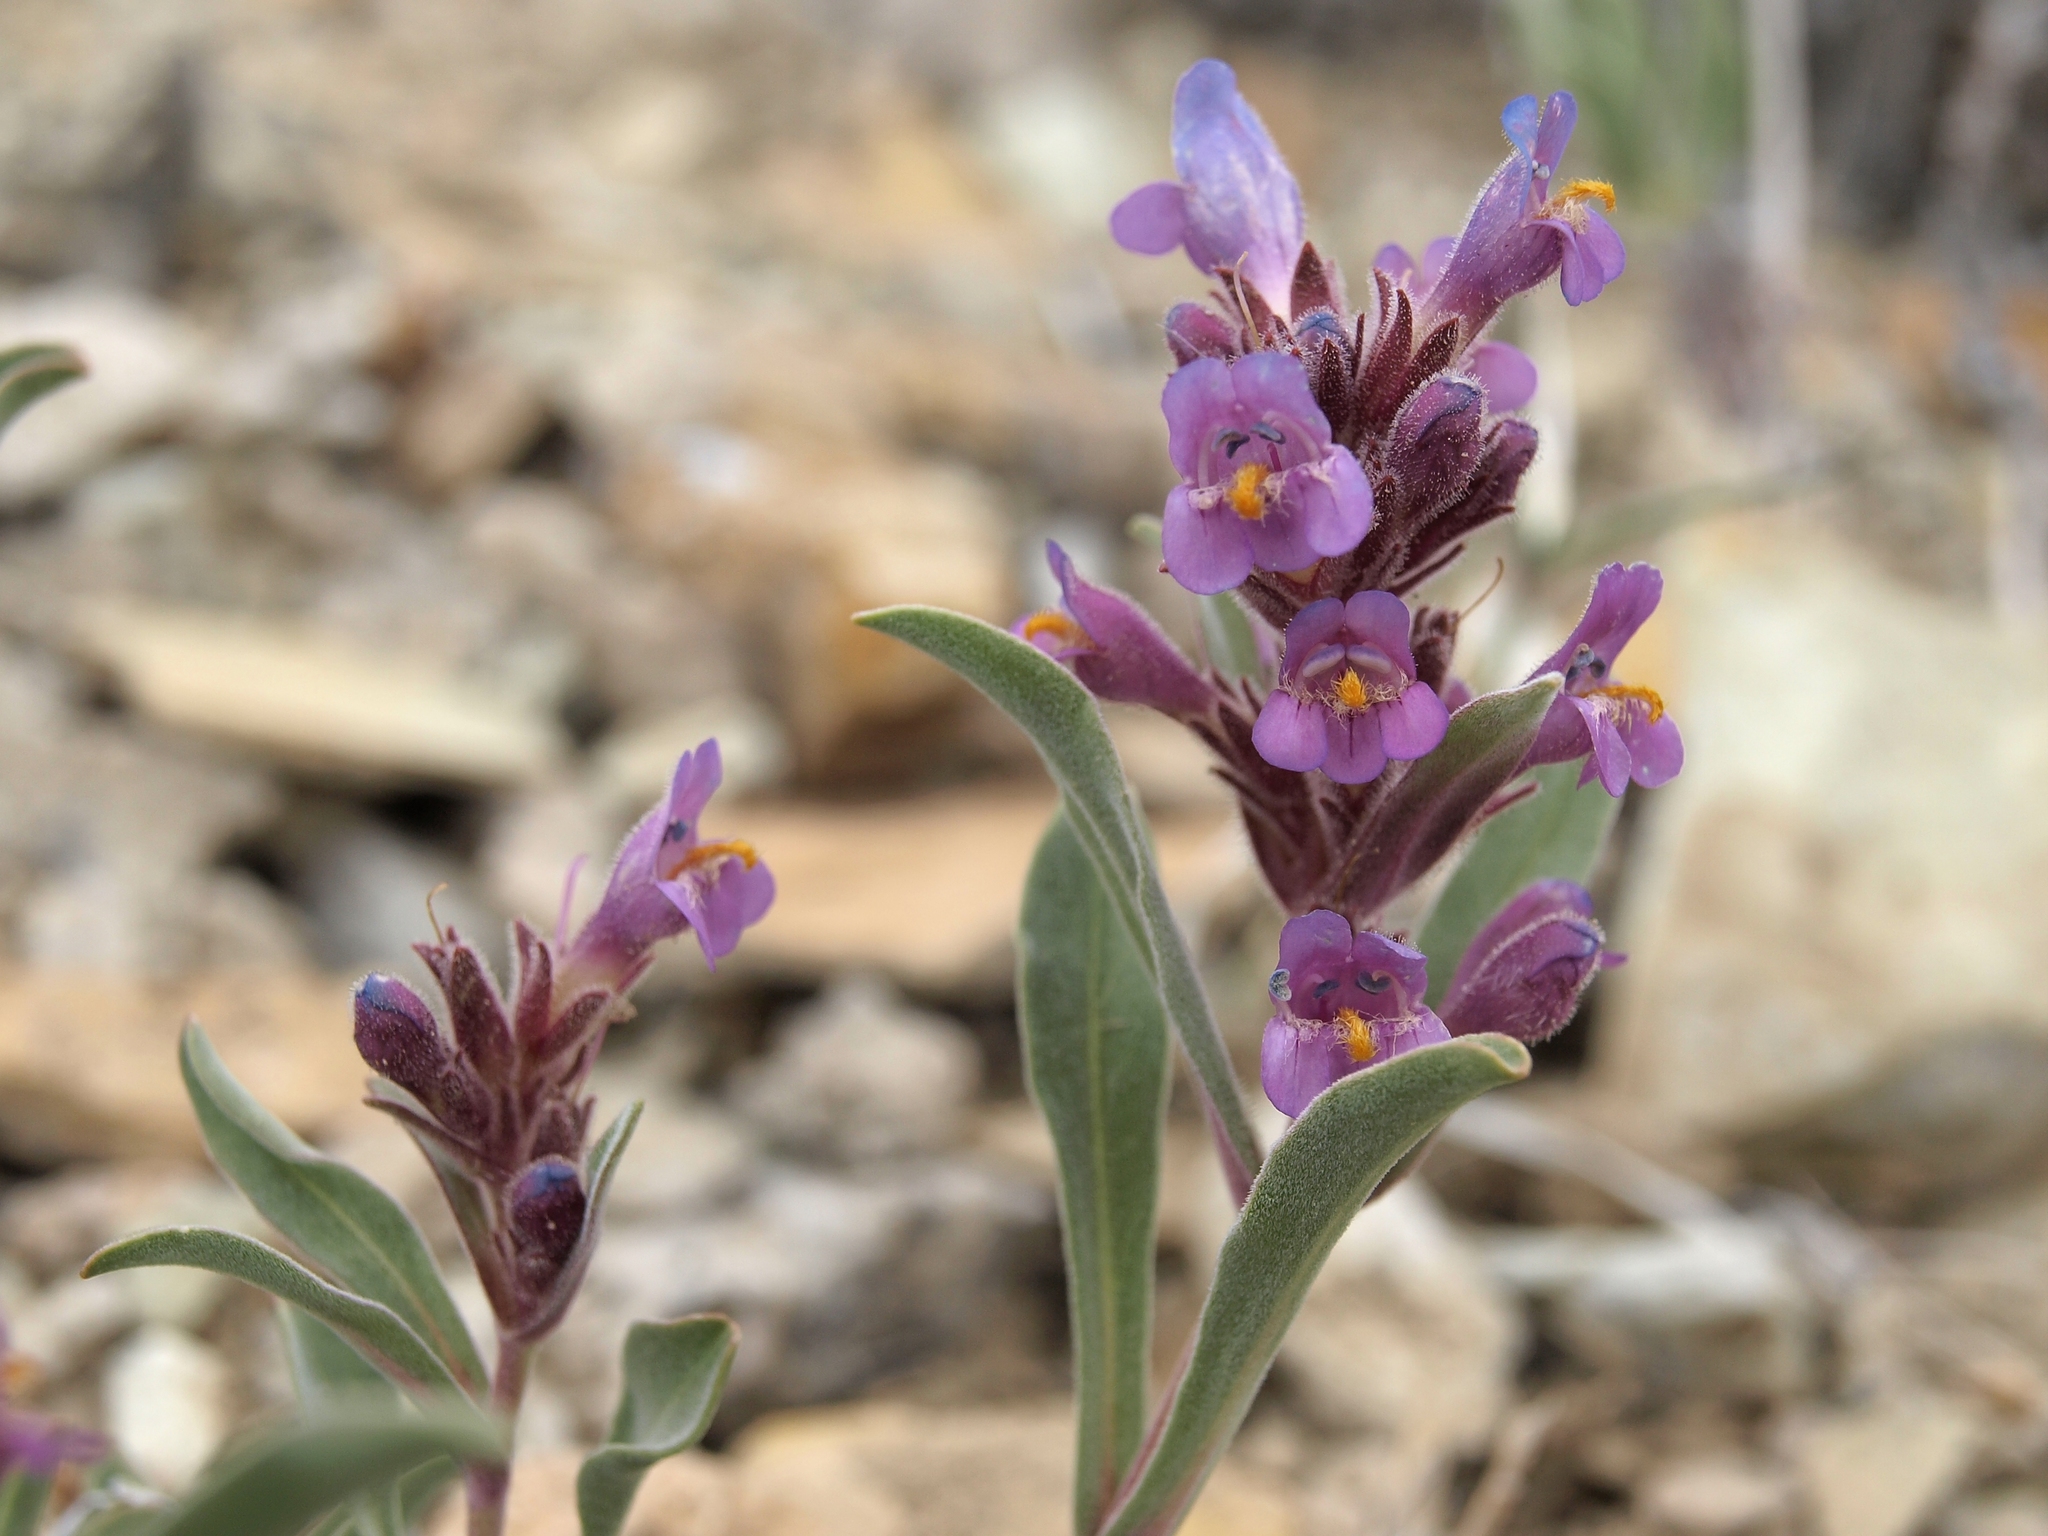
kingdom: Plantae
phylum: Tracheophyta
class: Magnoliopsida
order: Lamiales
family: Plantaginaceae
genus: Penstemon
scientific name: Penstemon barnebyi
